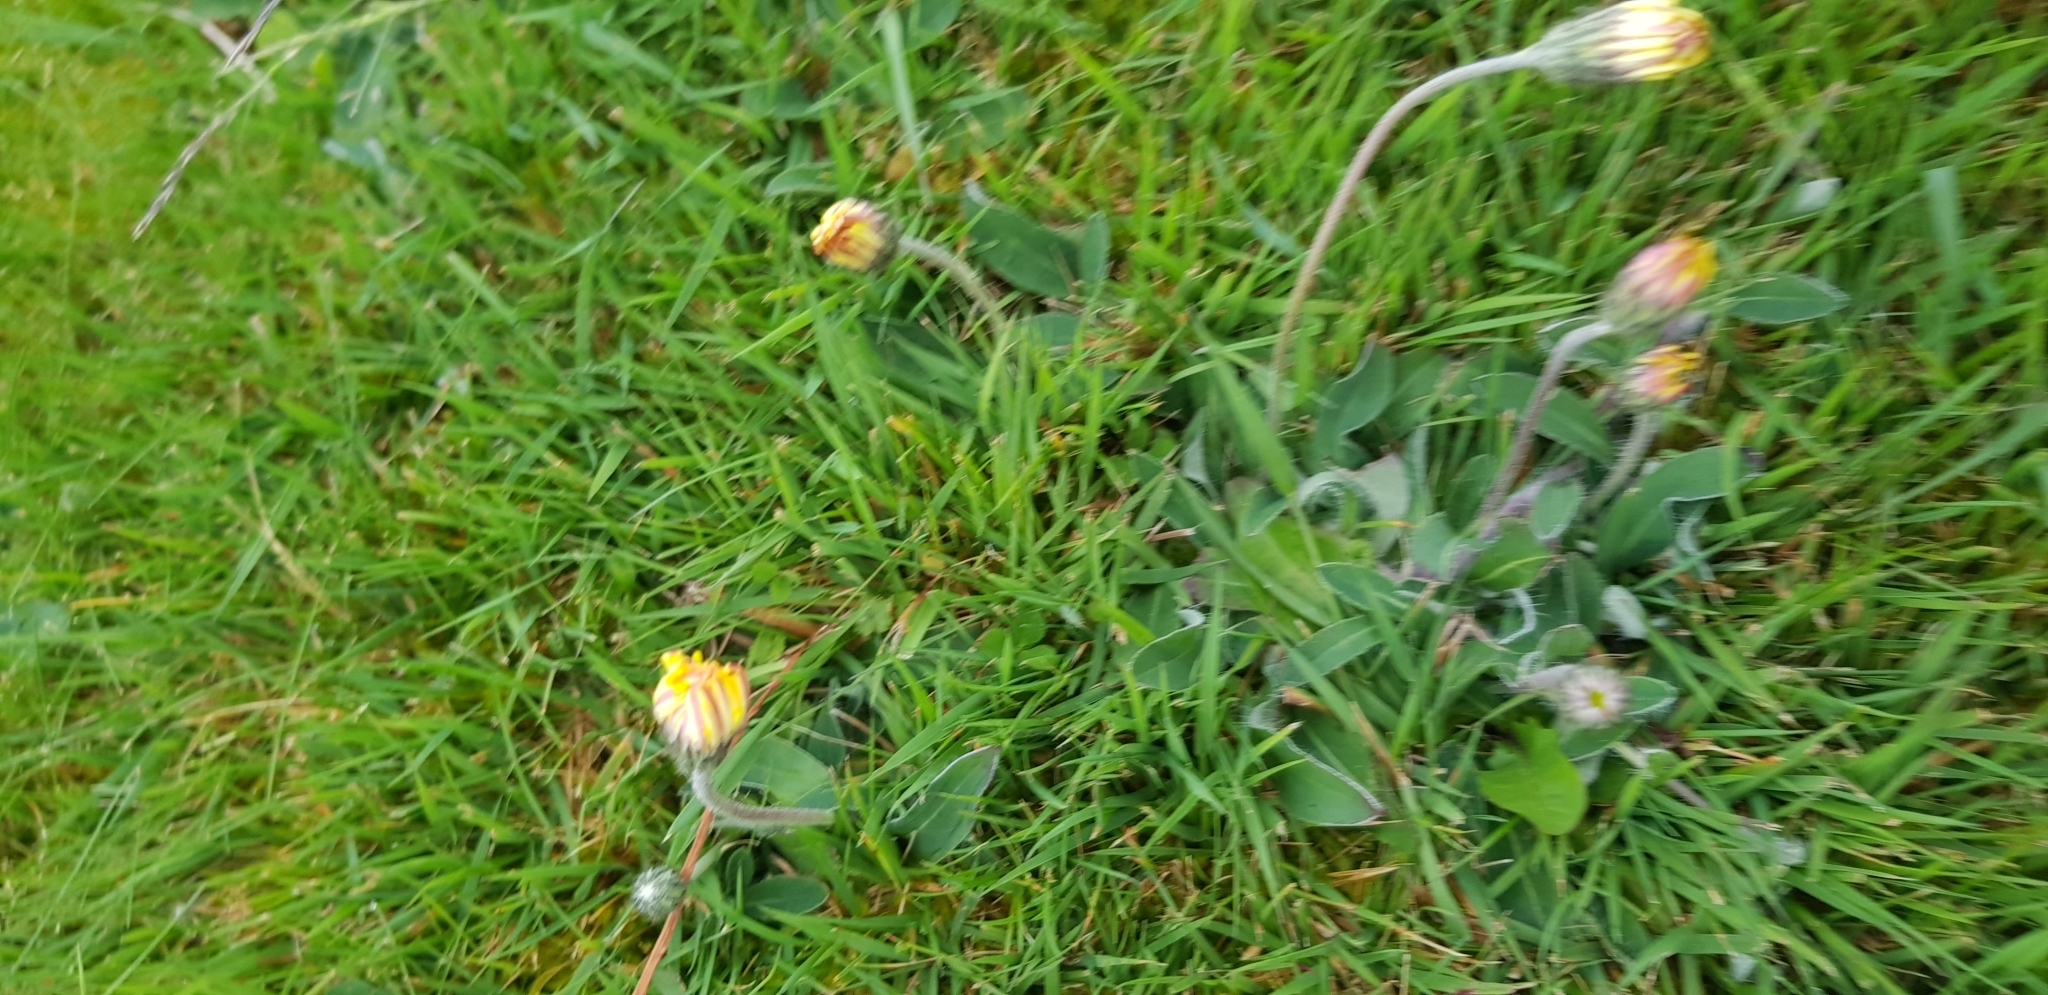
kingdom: Plantae
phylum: Tracheophyta
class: Magnoliopsida
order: Asterales
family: Asteraceae
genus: Pilosella
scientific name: Pilosella officinarum
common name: Mouse-ear hawkweed
